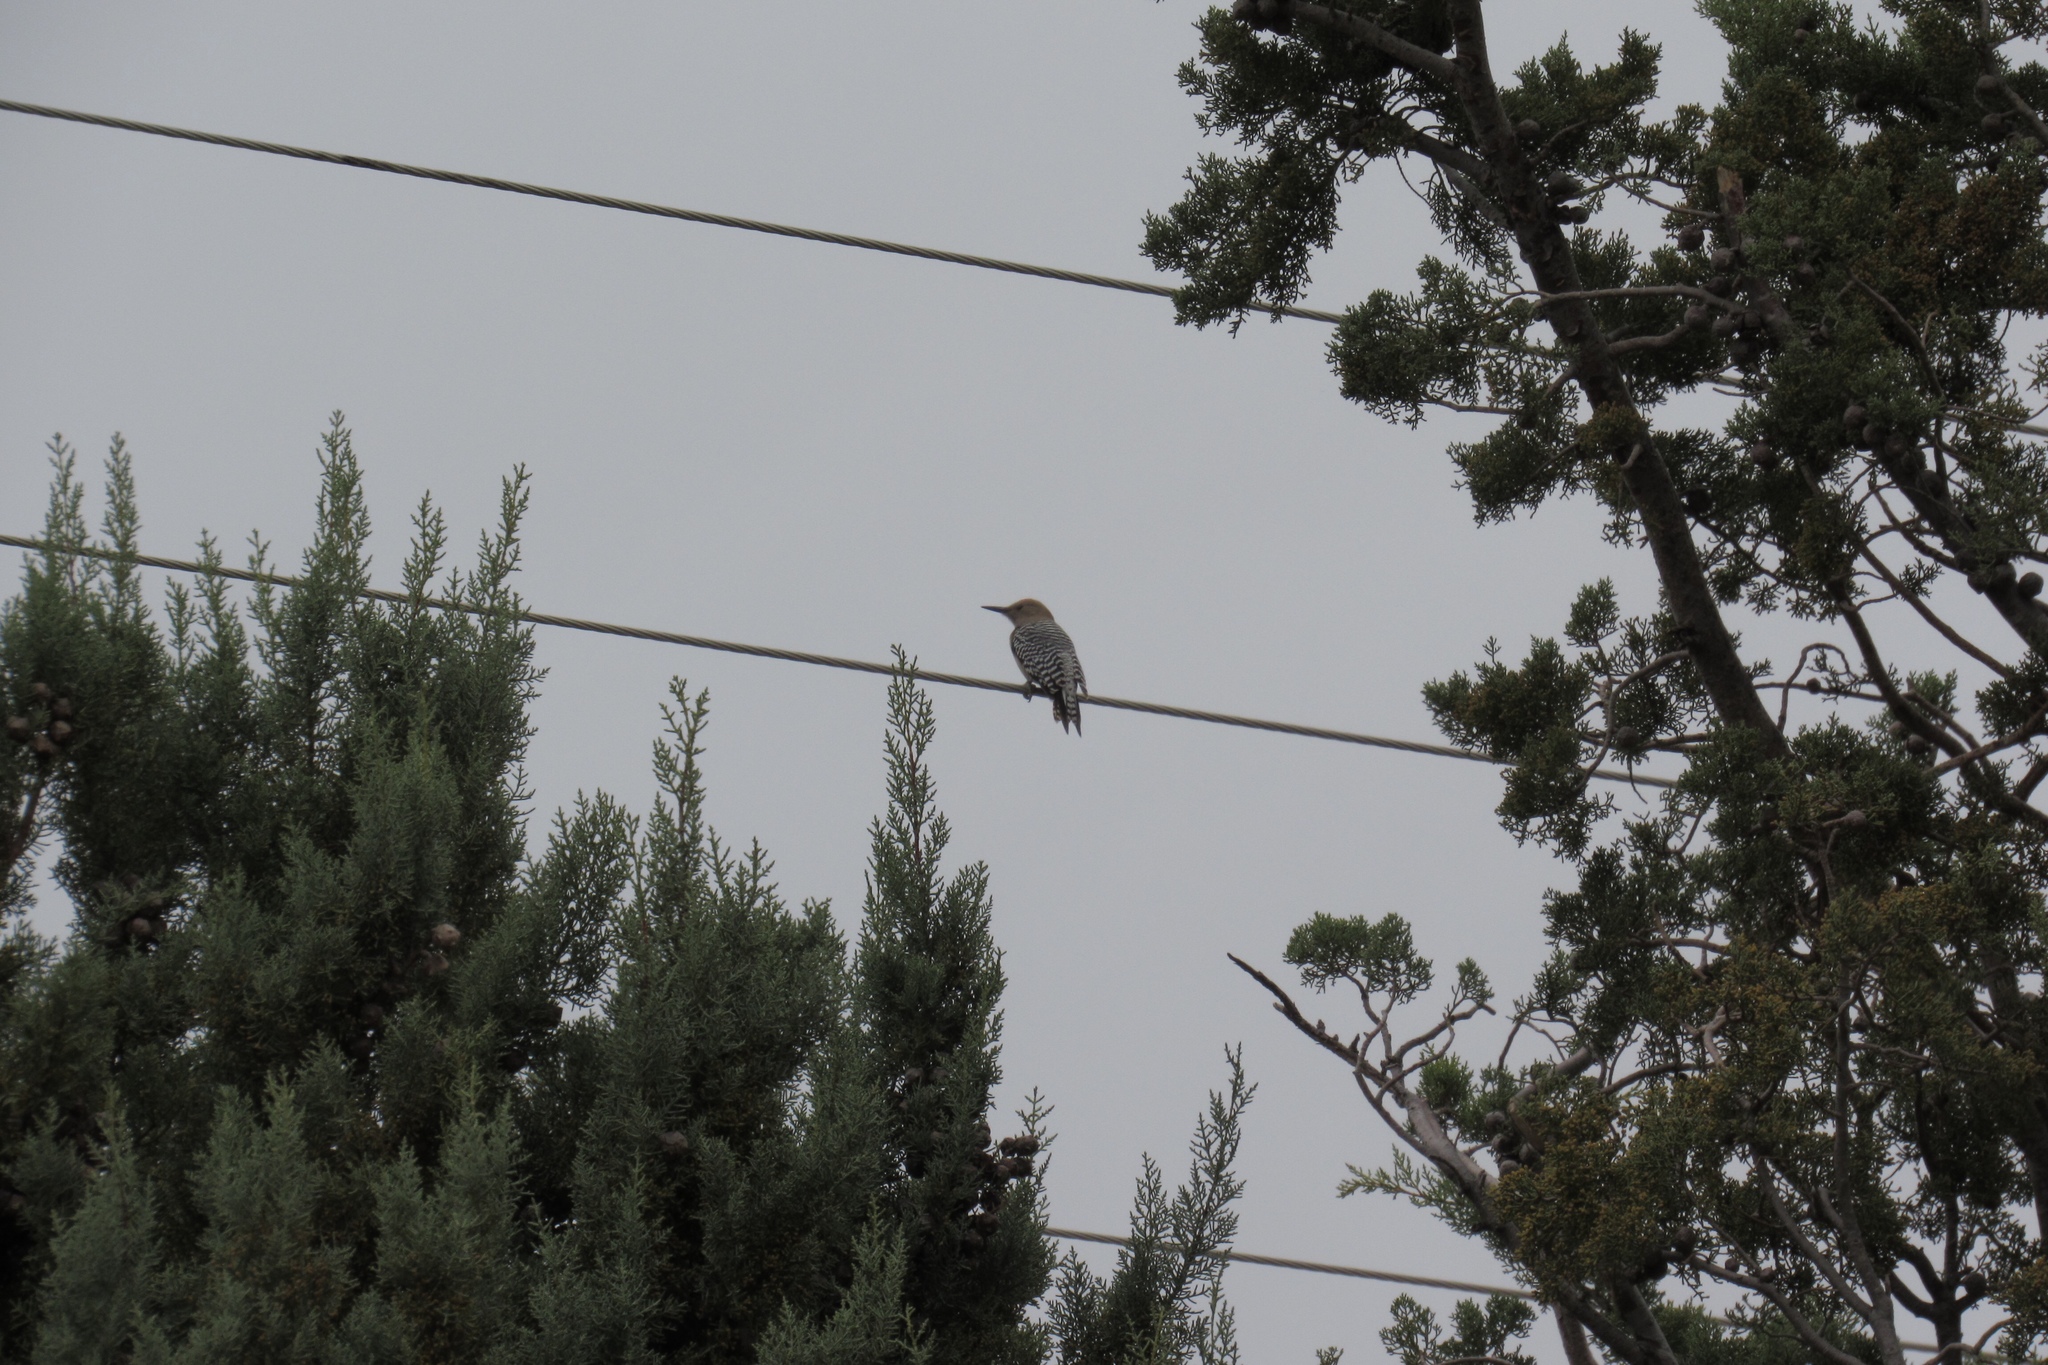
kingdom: Animalia
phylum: Chordata
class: Aves
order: Piciformes
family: Picidae
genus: Melanerpes
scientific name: Melanerpes uropygialis
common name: Gila woodpecker
